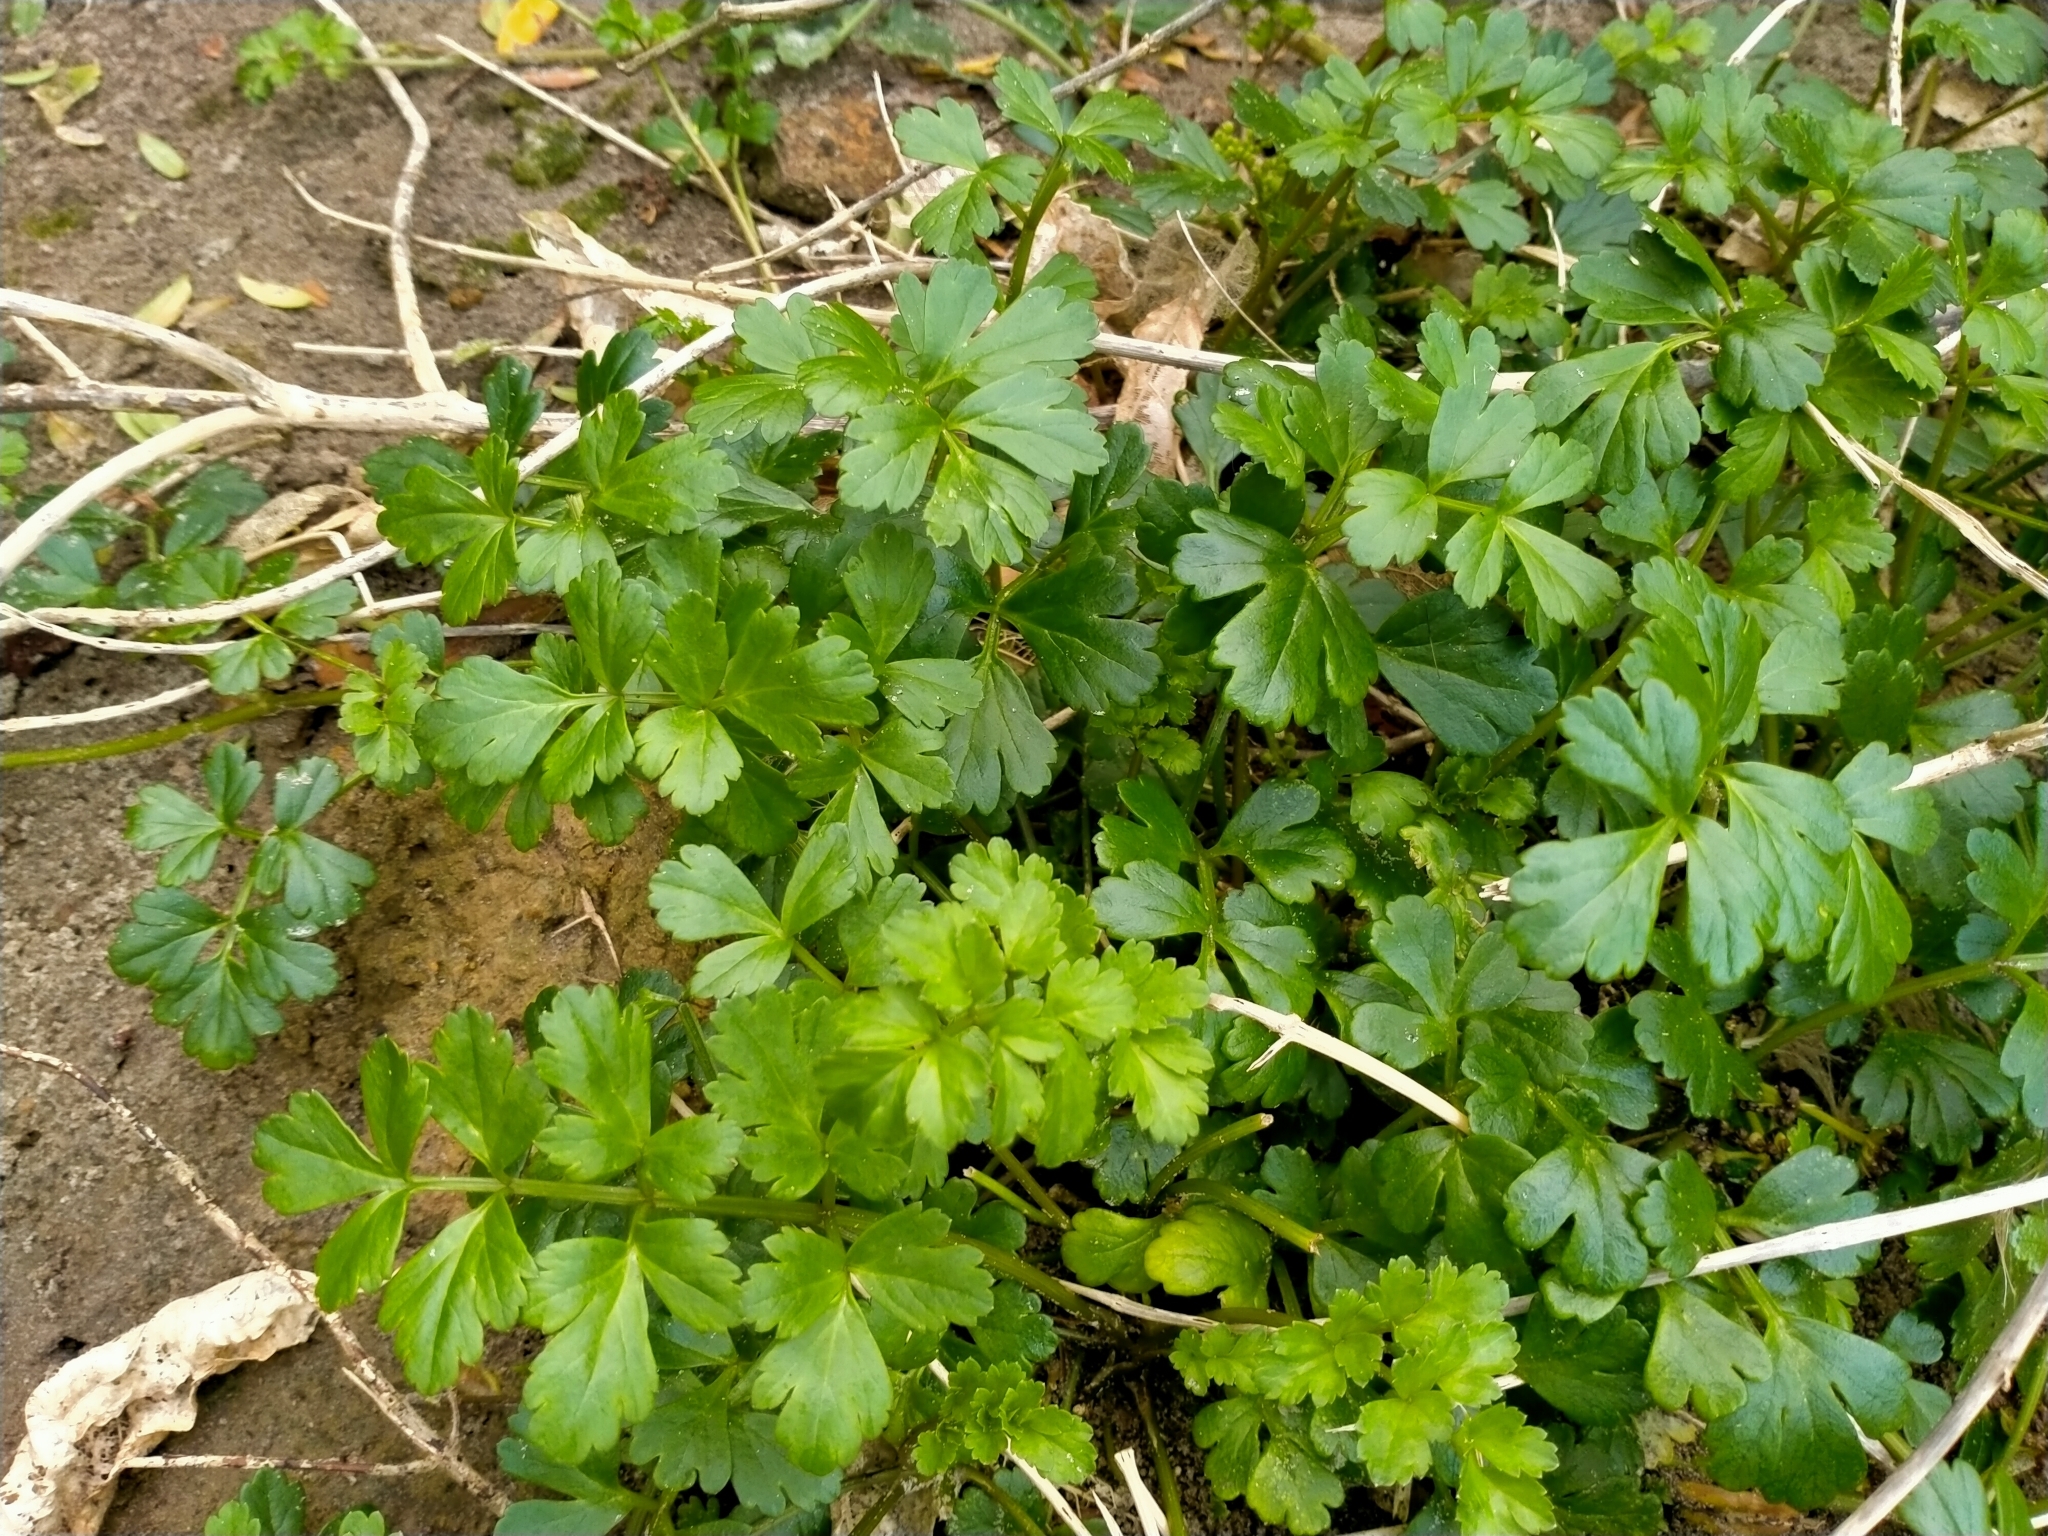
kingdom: Plantae
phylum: Tracheophyta
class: Magnoliopsida
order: Apiales
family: Apiaceae
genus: Apium
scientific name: Apium prostratum
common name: Prostrate marshwort
